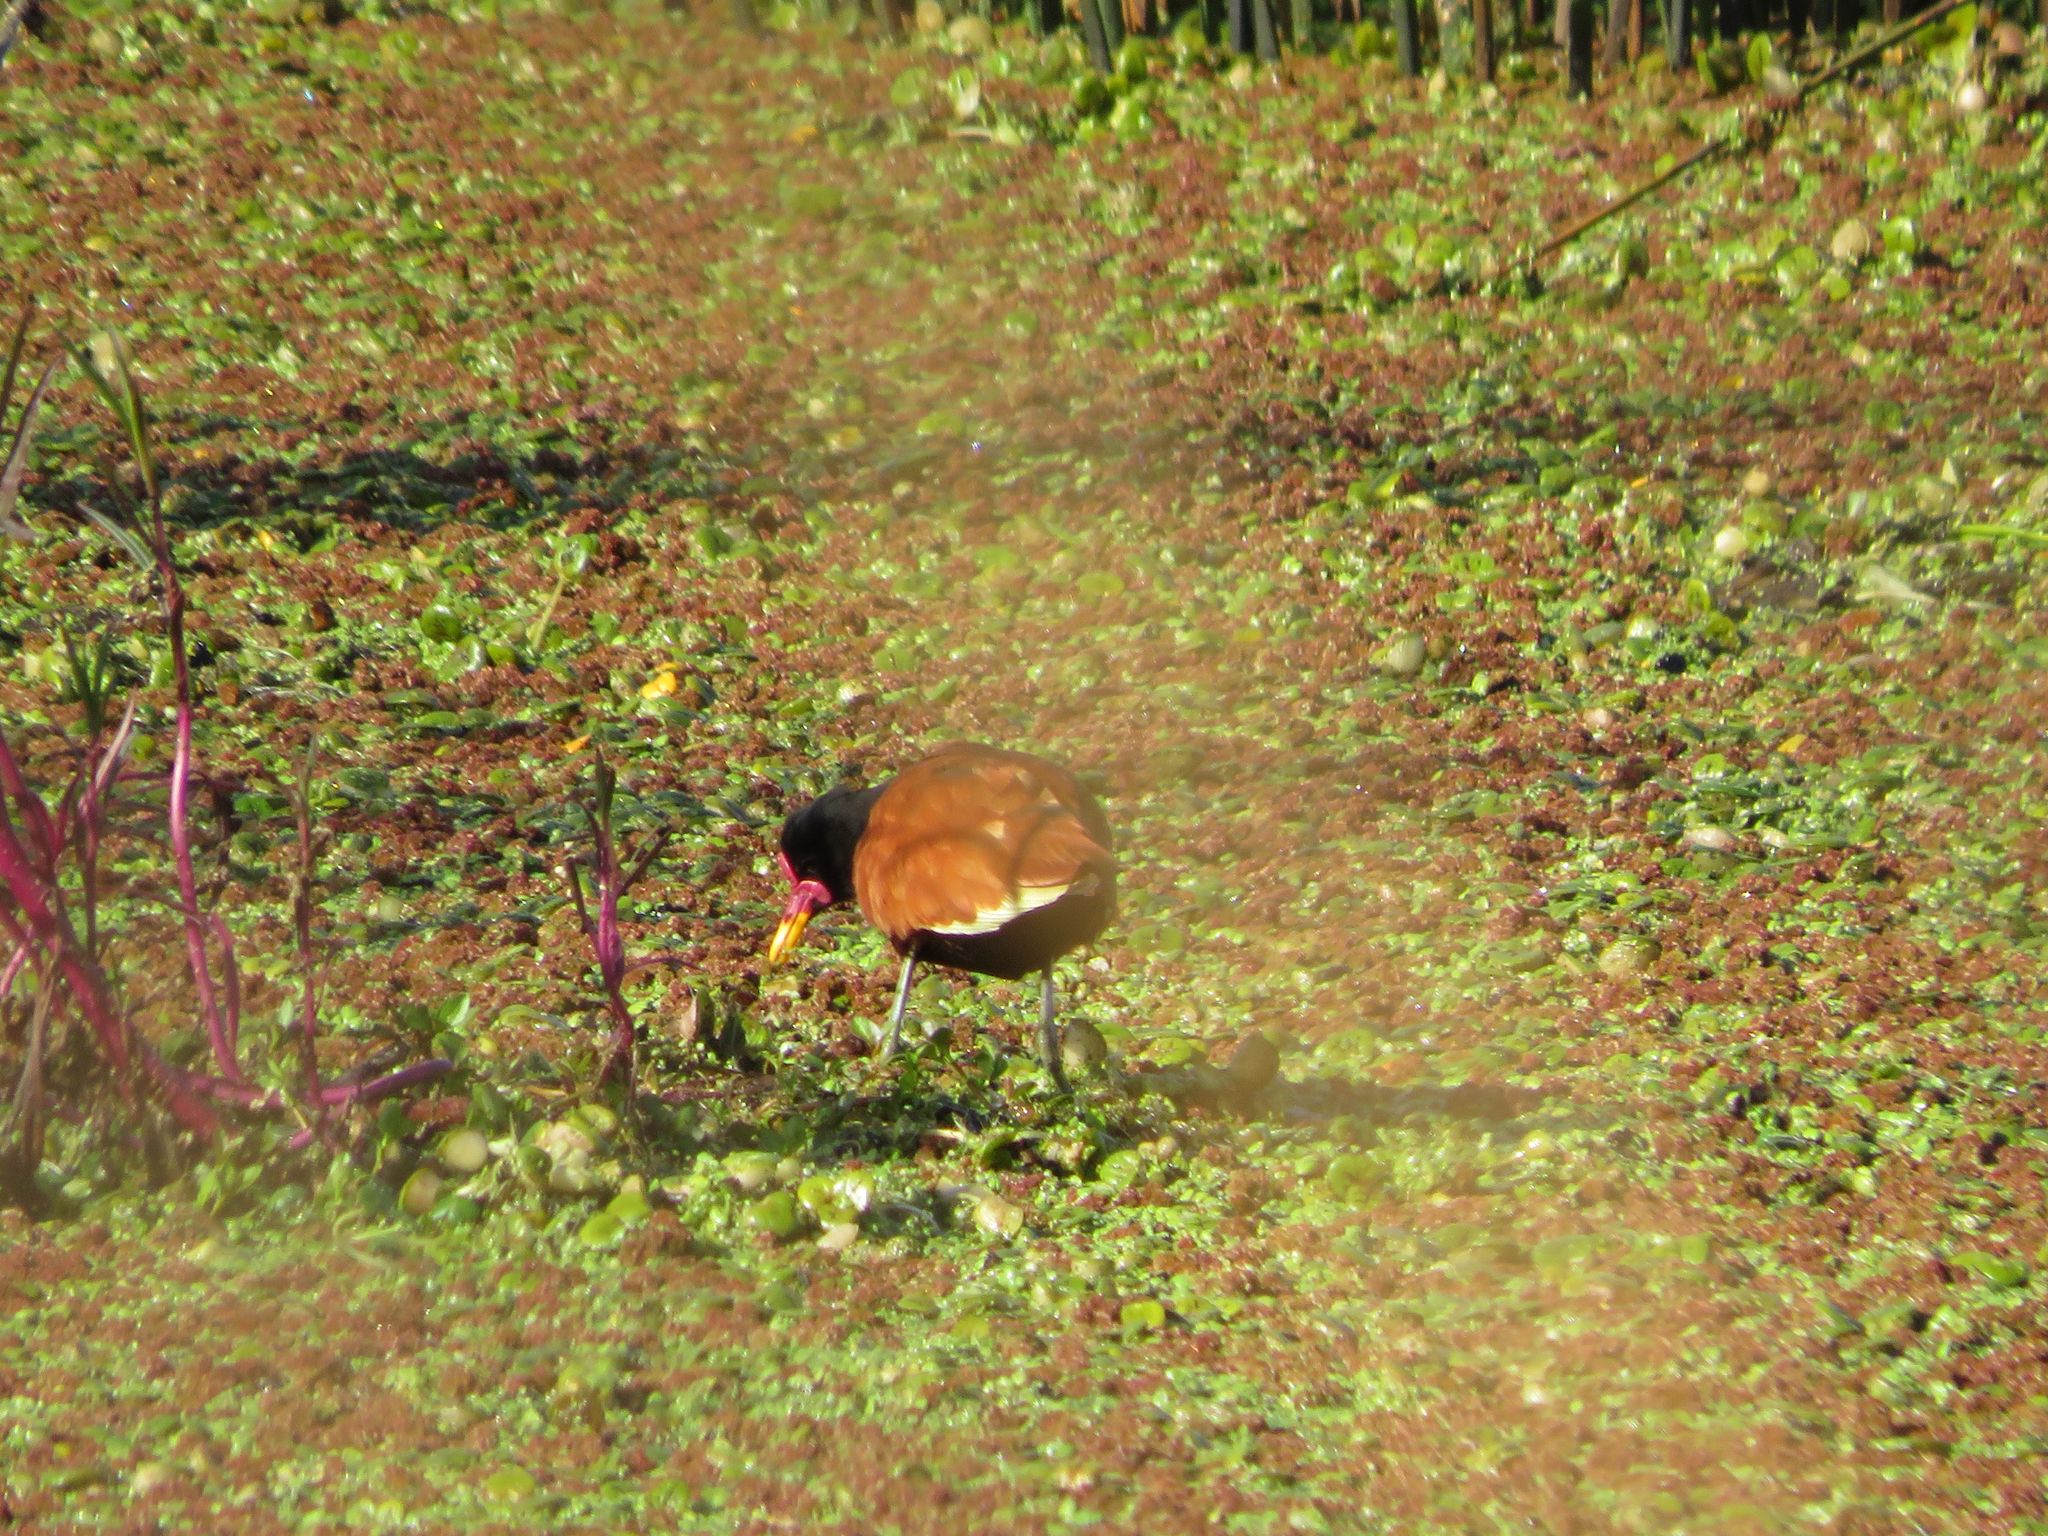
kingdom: Animalia
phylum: Chordata
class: Aves
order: Charadriiformes
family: Jacanidae
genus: Jacana
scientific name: Jacana jacana
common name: Wattled jacana
